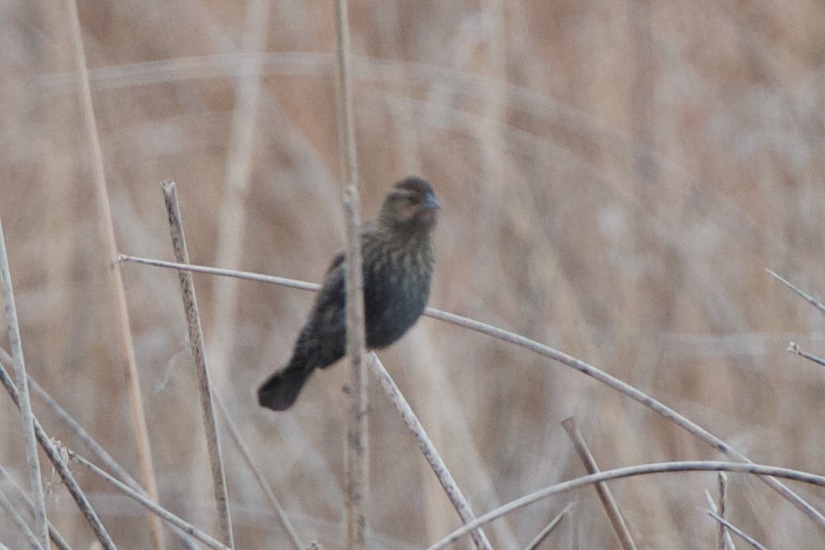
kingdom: Animalia
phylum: Chordata
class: Aves
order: Passeriformes
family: Icteridae
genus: Agelaius
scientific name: Agelaius phoeniceus
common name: Red-winged blackbird
